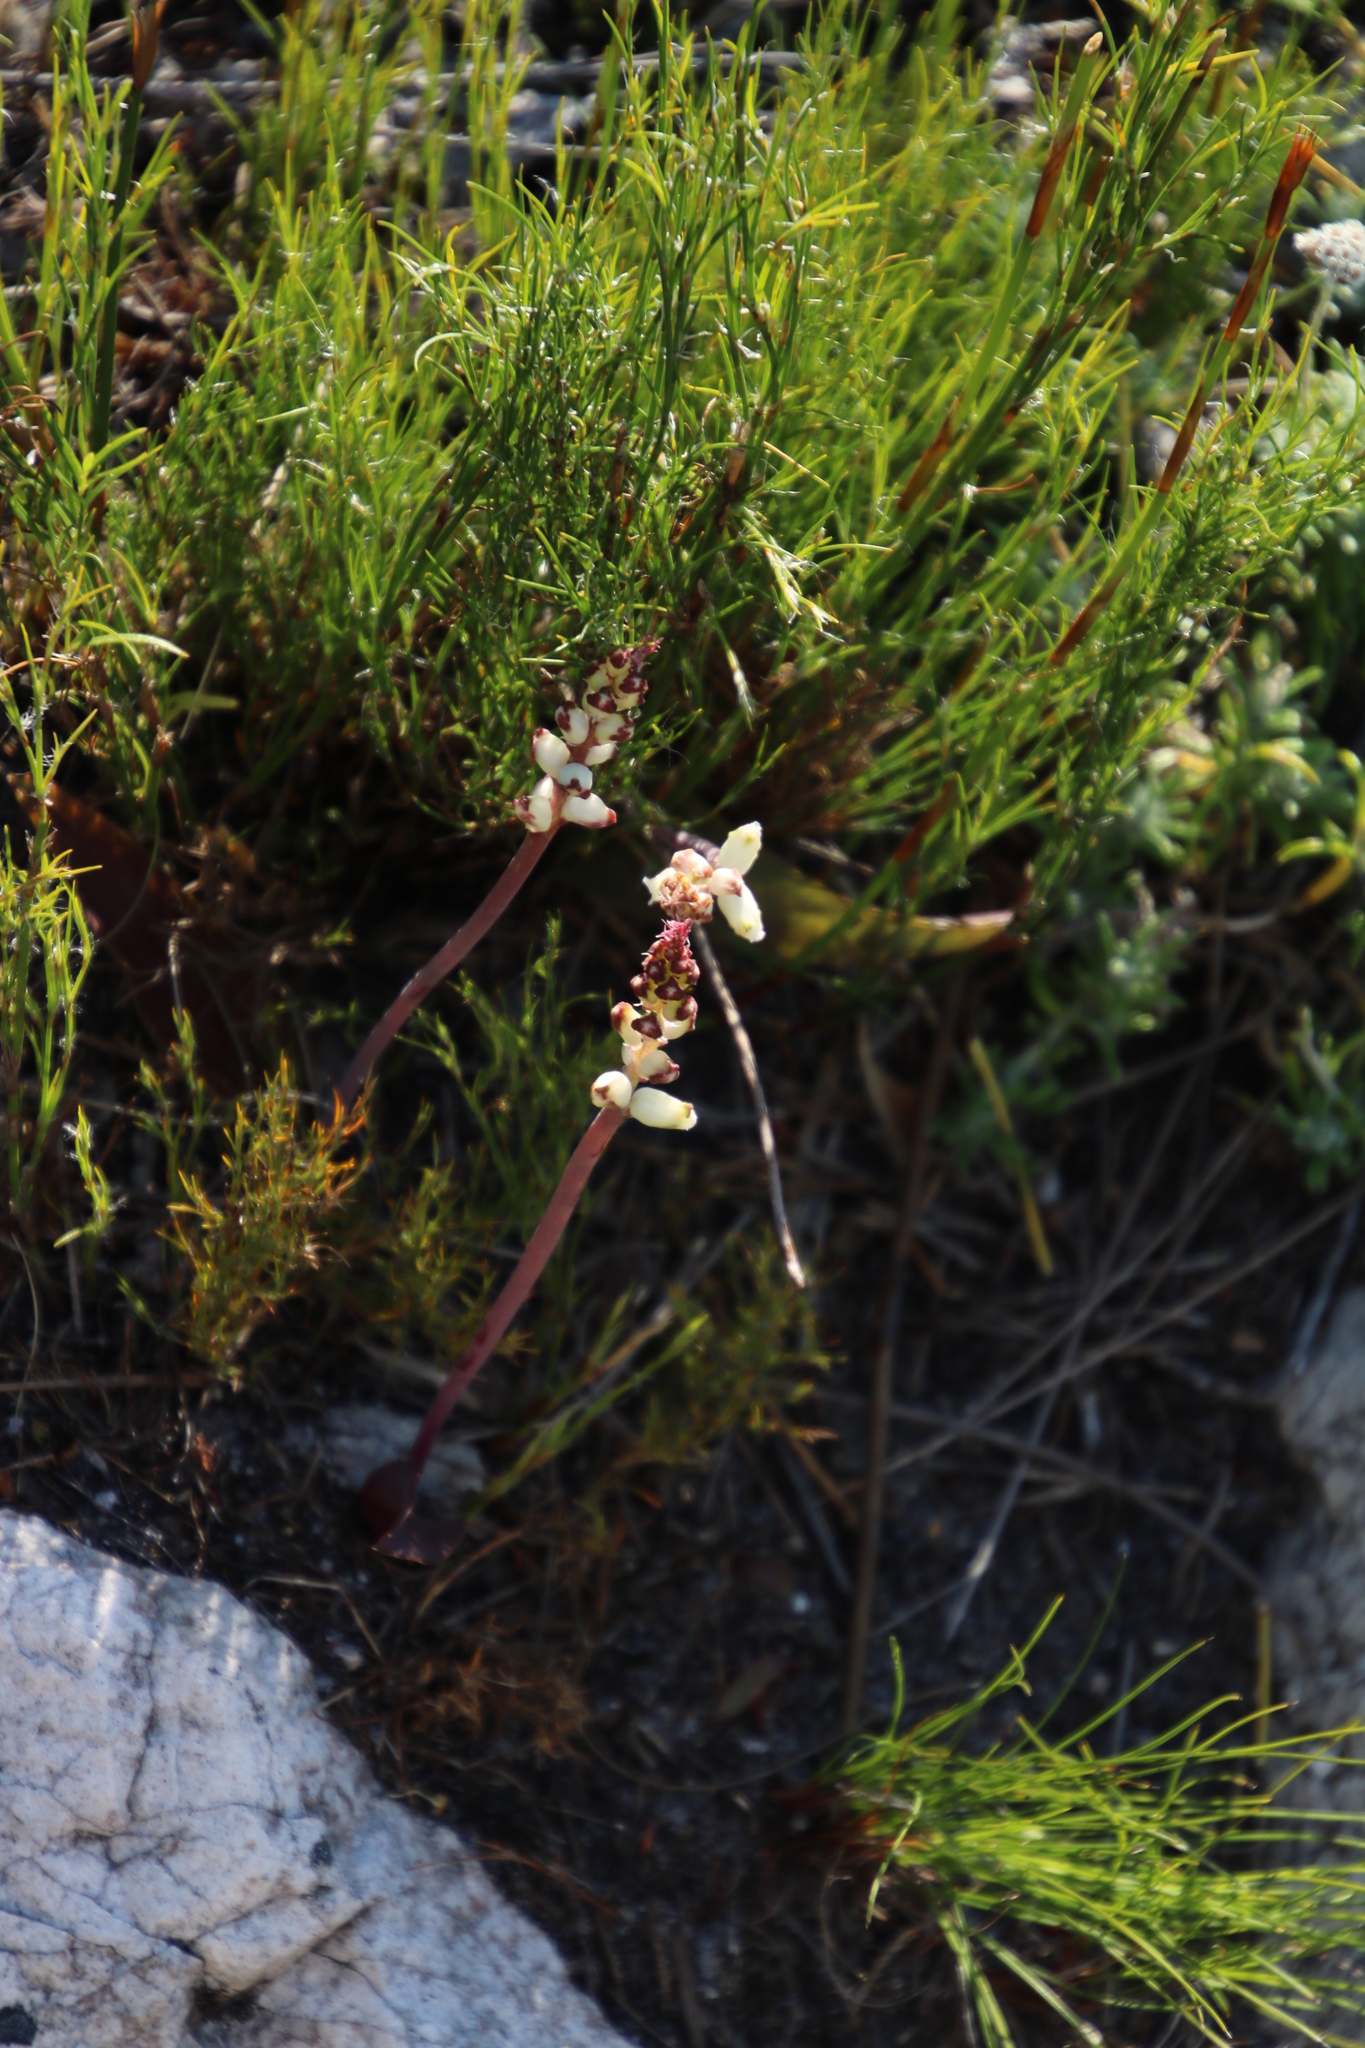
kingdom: Plantae
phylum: Tracheophyta
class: Liliopsida
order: Asparagales
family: Asparagaceae
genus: Lachenalia
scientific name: Lachenalia peersii
